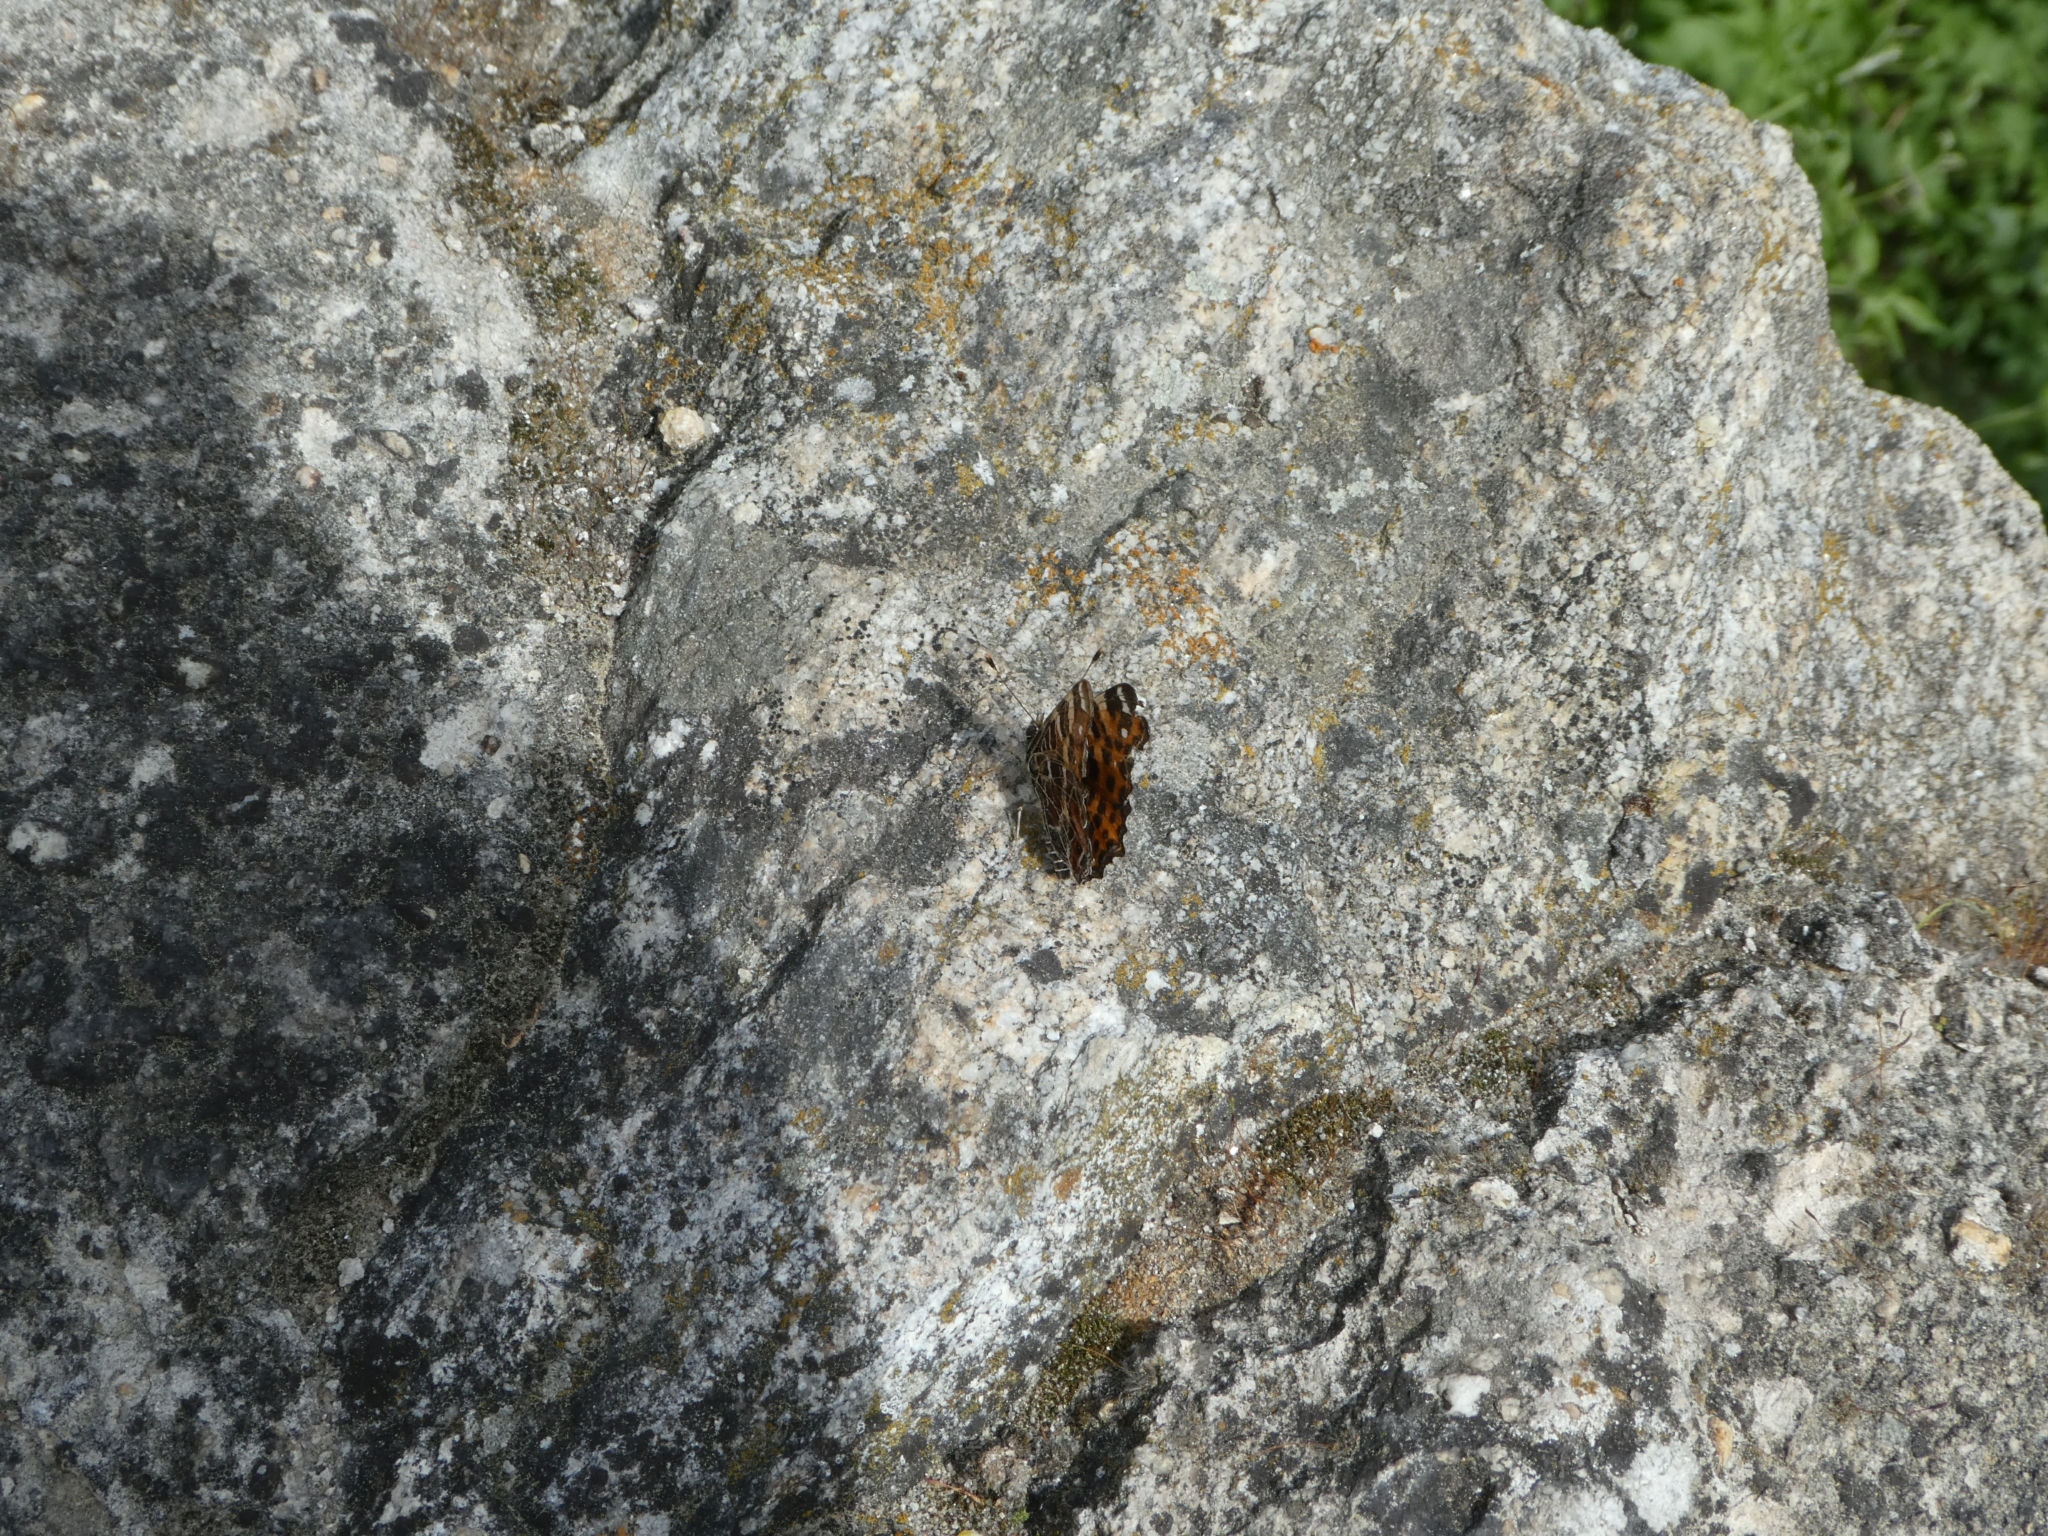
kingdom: Animalia
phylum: Arthropoda
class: Insecta
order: Lepidoptera
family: Nymphalidae
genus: Araschnia
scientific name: Araschnia levana
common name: Map butterfly
